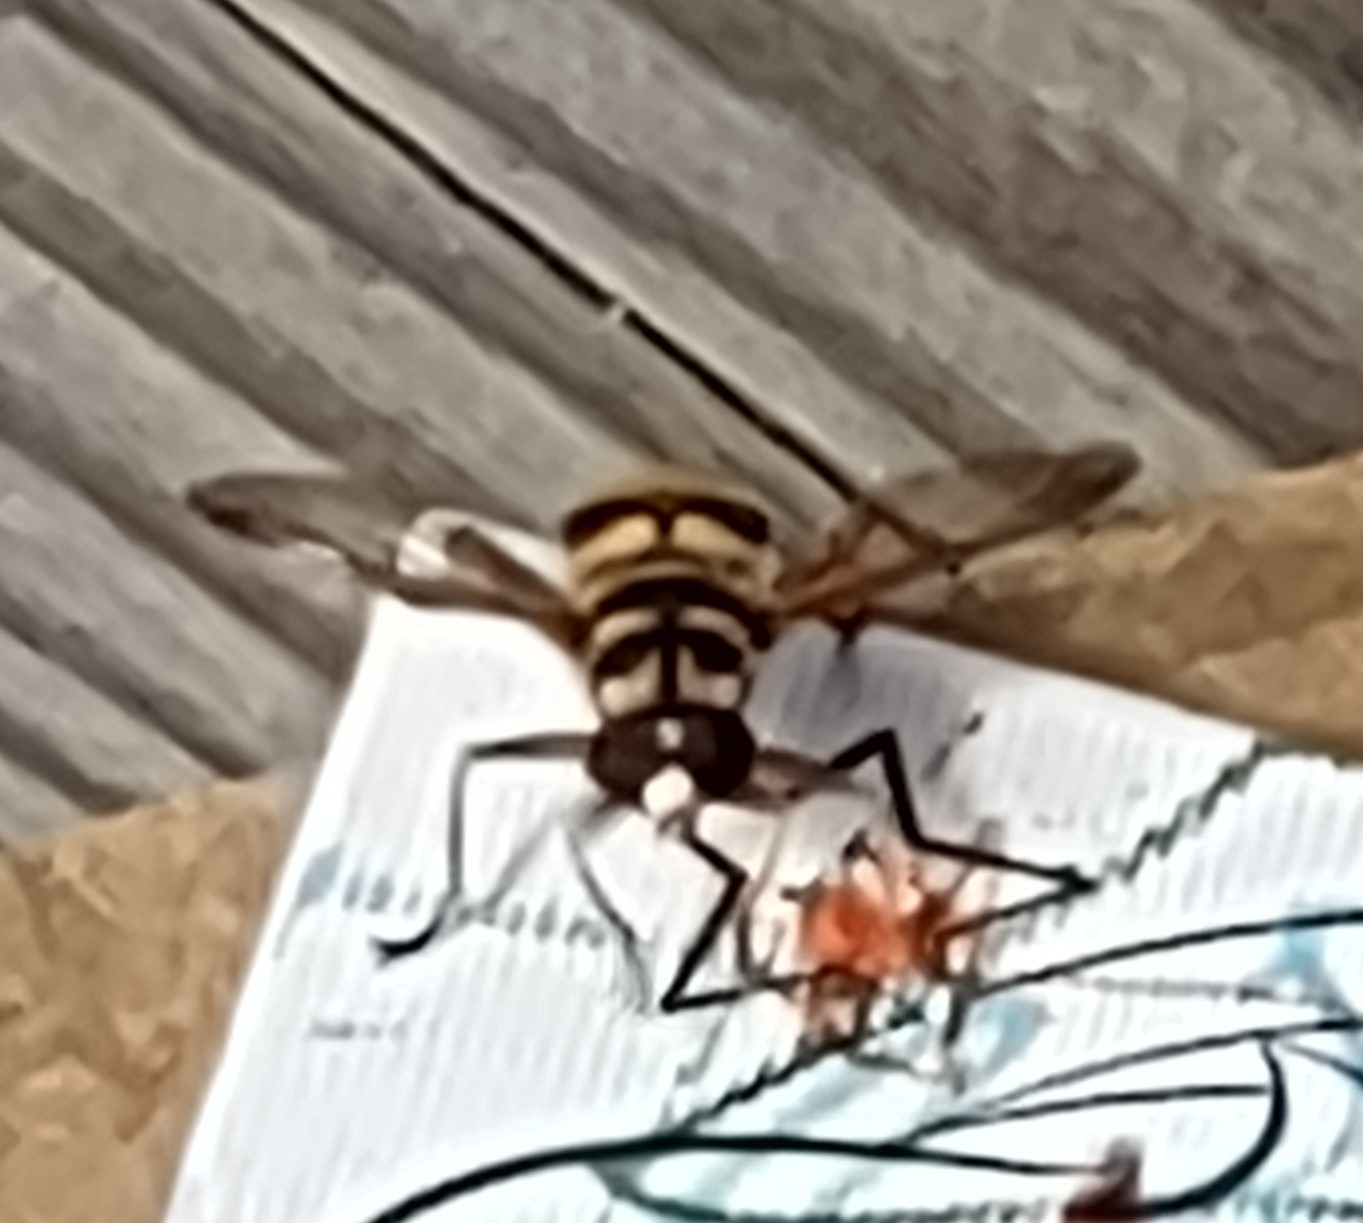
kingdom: Animalia
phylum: Arthropoda
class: Insecta
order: Diptera
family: Syrphidae
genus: Milesia
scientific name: Milesia virginiensis
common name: Virginia giant
